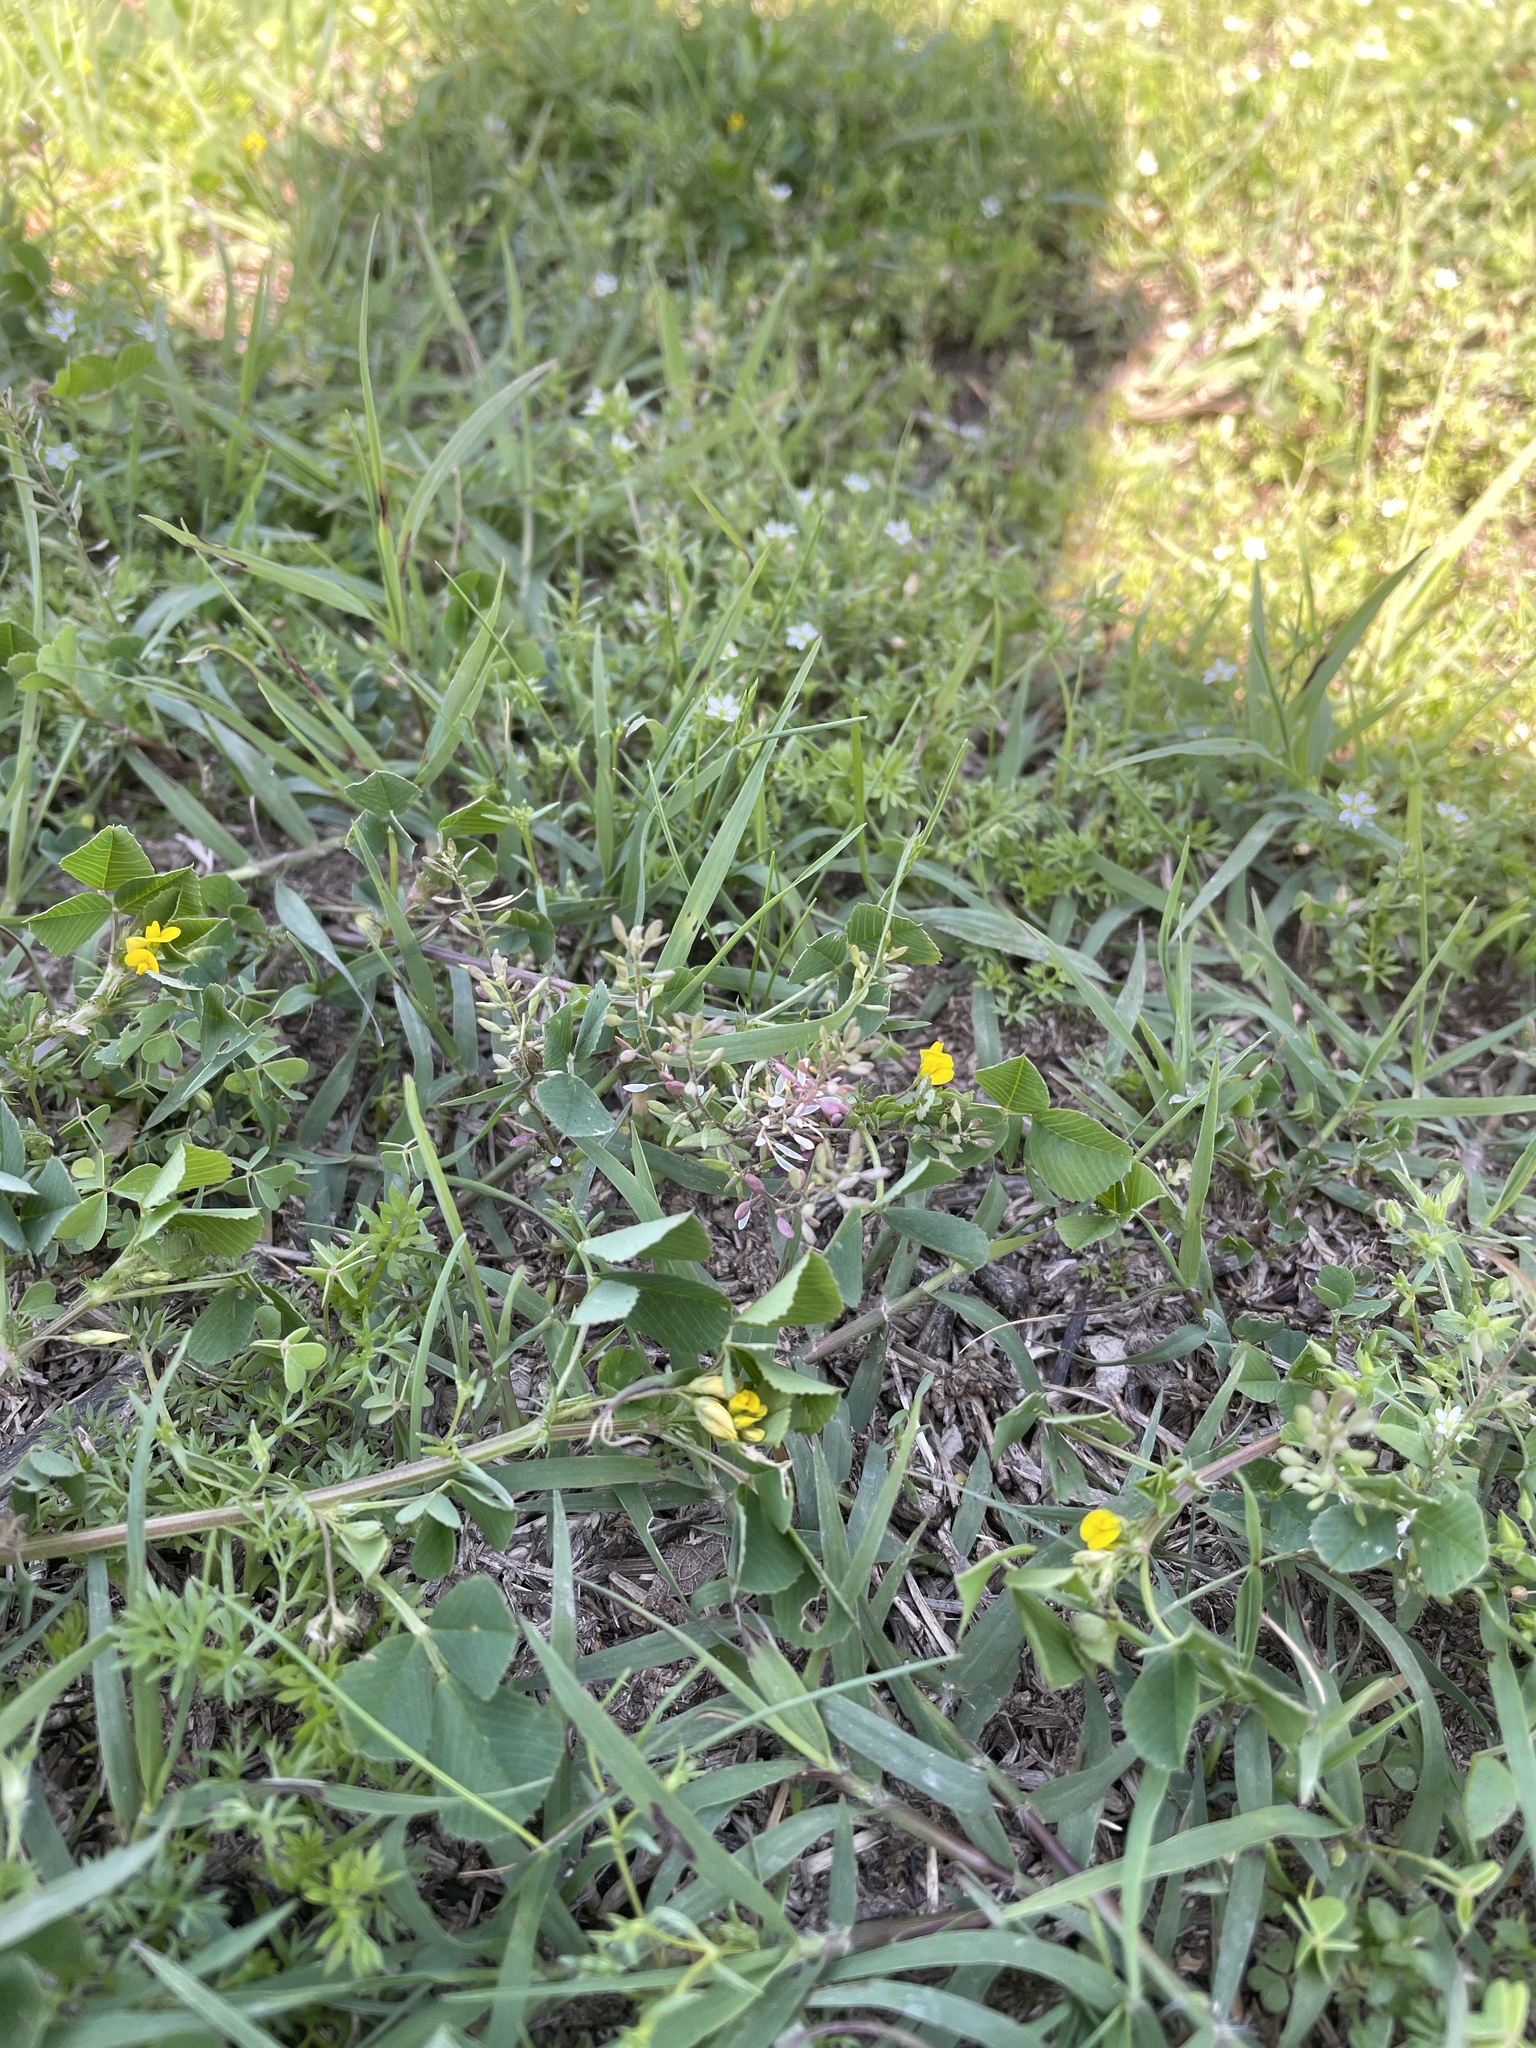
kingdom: Plantae
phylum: Tracheophyta
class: Magnoliopsida
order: Brassicales
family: Brassicaceae
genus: Abdra
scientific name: Abdra brachycarpa
